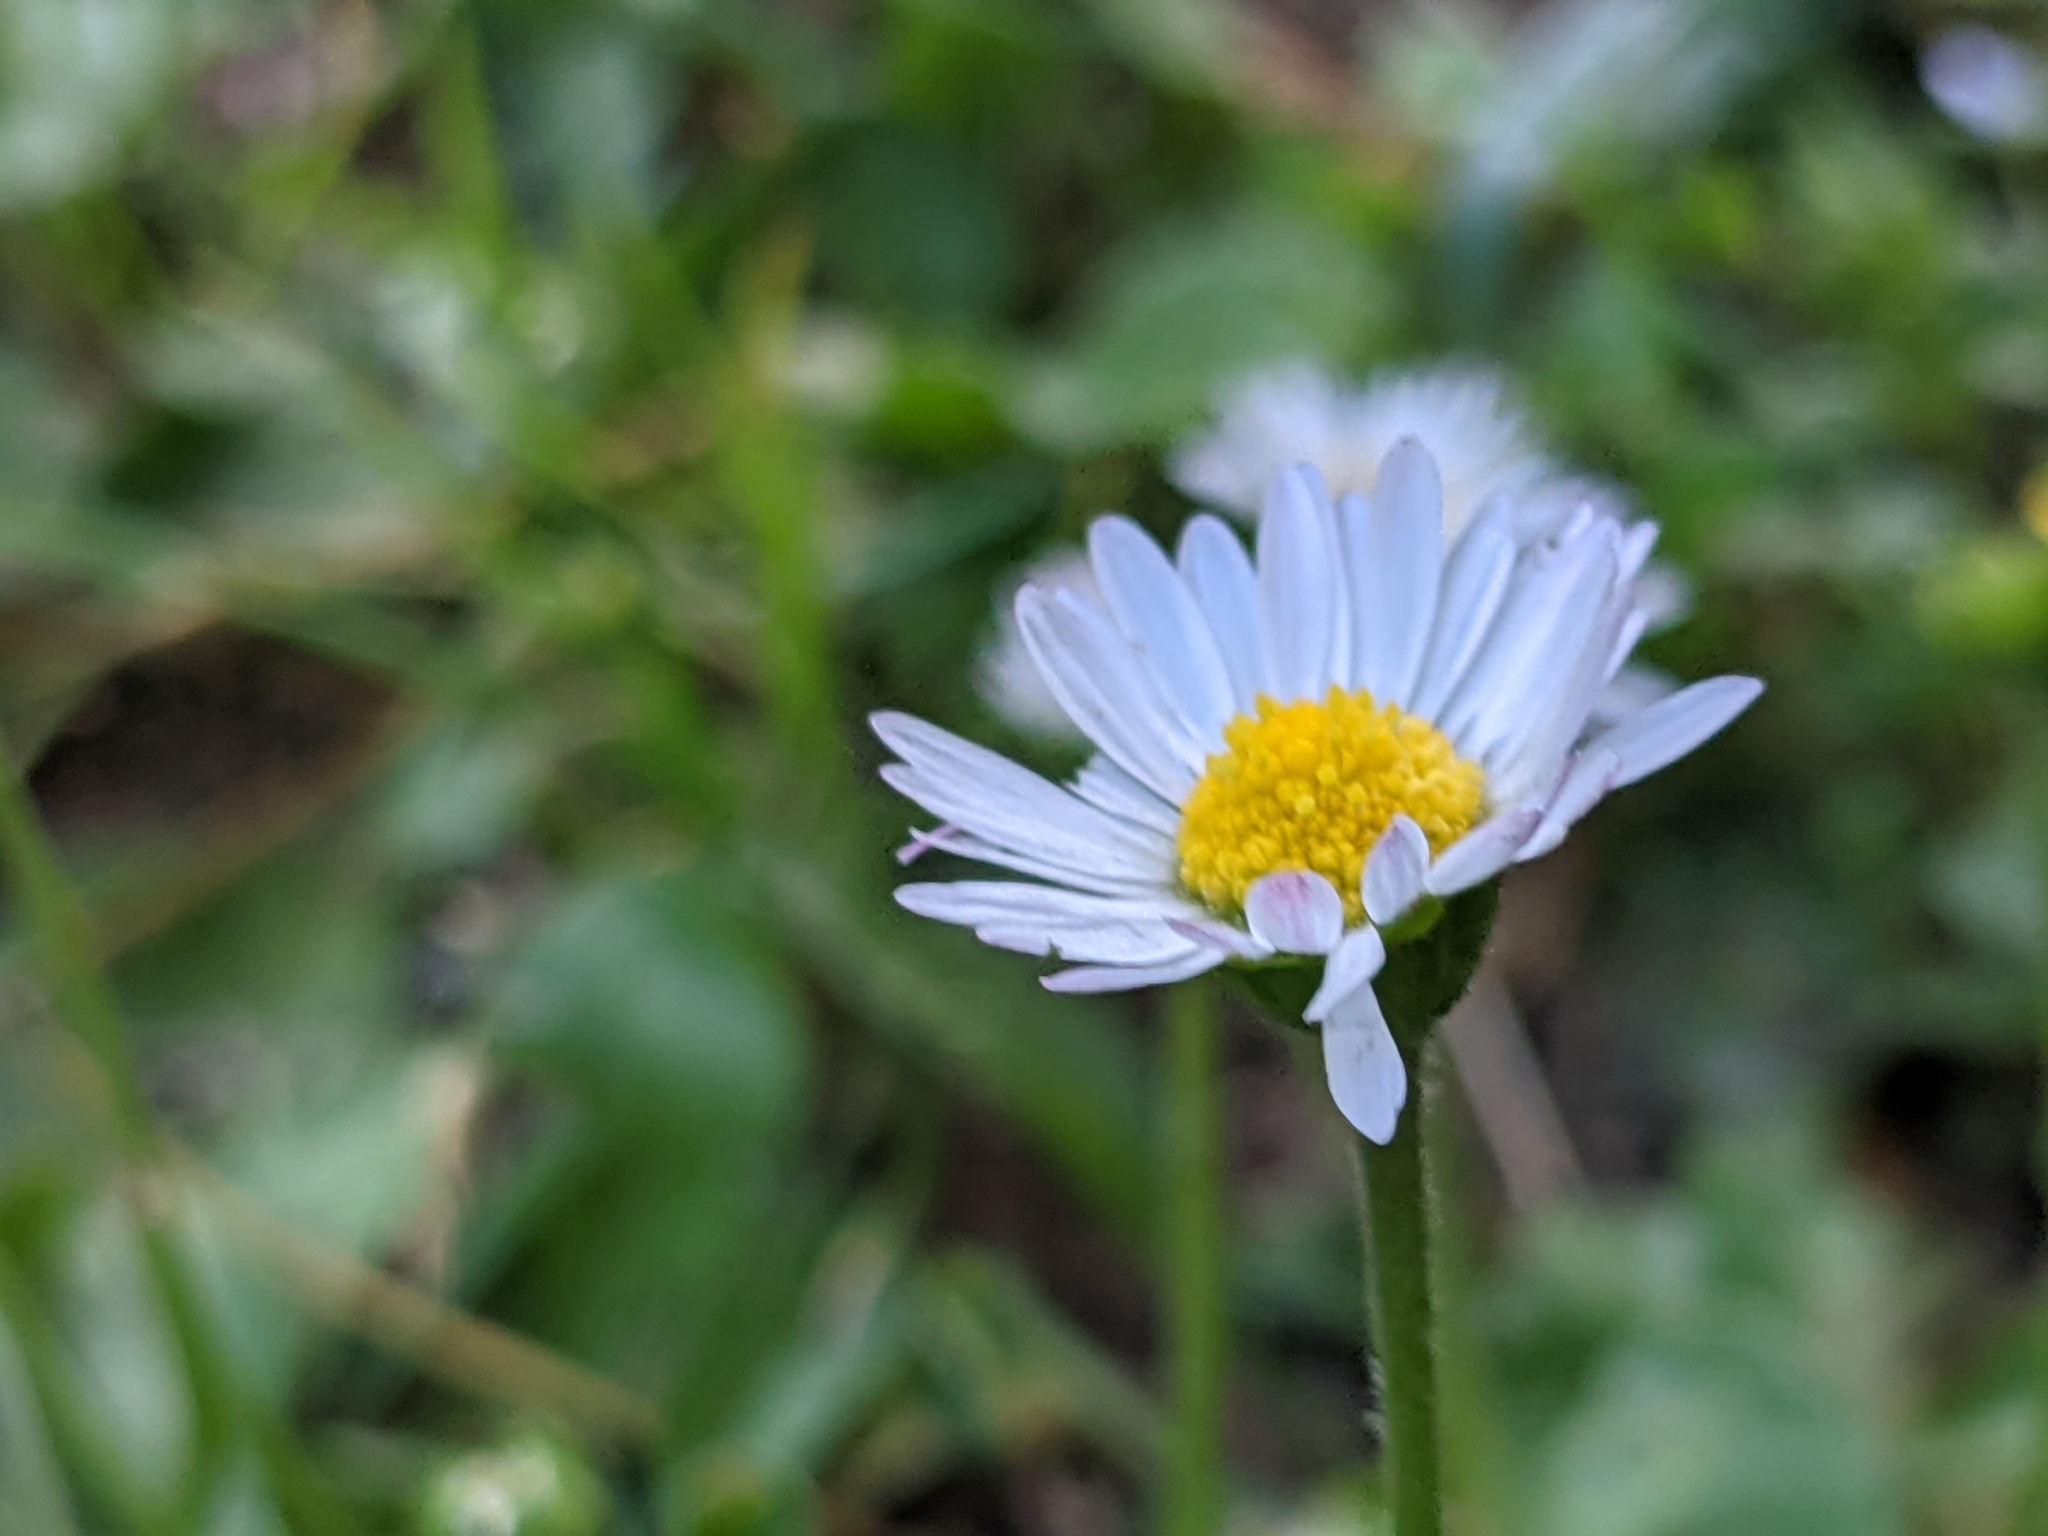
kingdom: Plantae
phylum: Tracheophyta
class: Magnoliopsida
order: Asterales
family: Asteraceae
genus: Bellis
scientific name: Bellis perennis
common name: Lawndaisy
